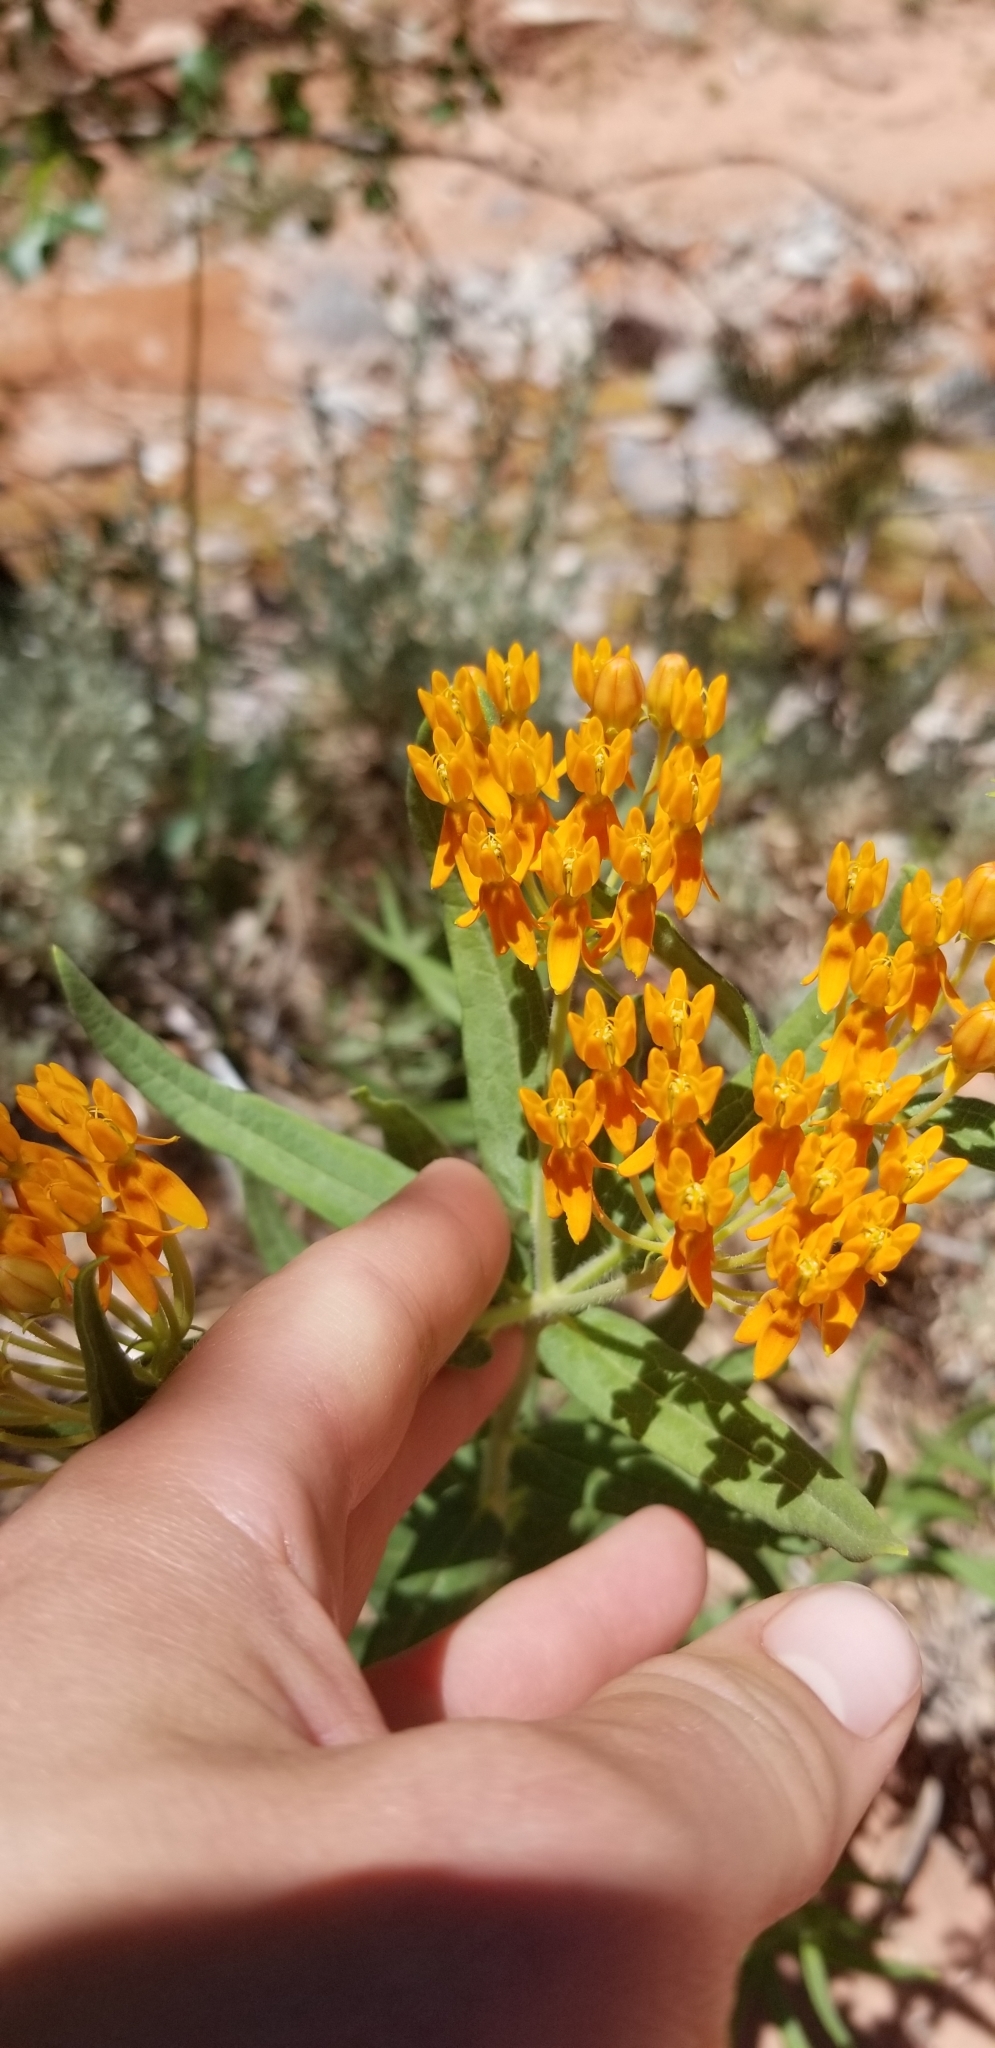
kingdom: Plantae
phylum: Tracheophyta
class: Magnoliopsida
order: Gentianales
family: Apocynaceae
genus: Asclepias
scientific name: Asclepias tuberosa
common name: Butterfly milkweed
